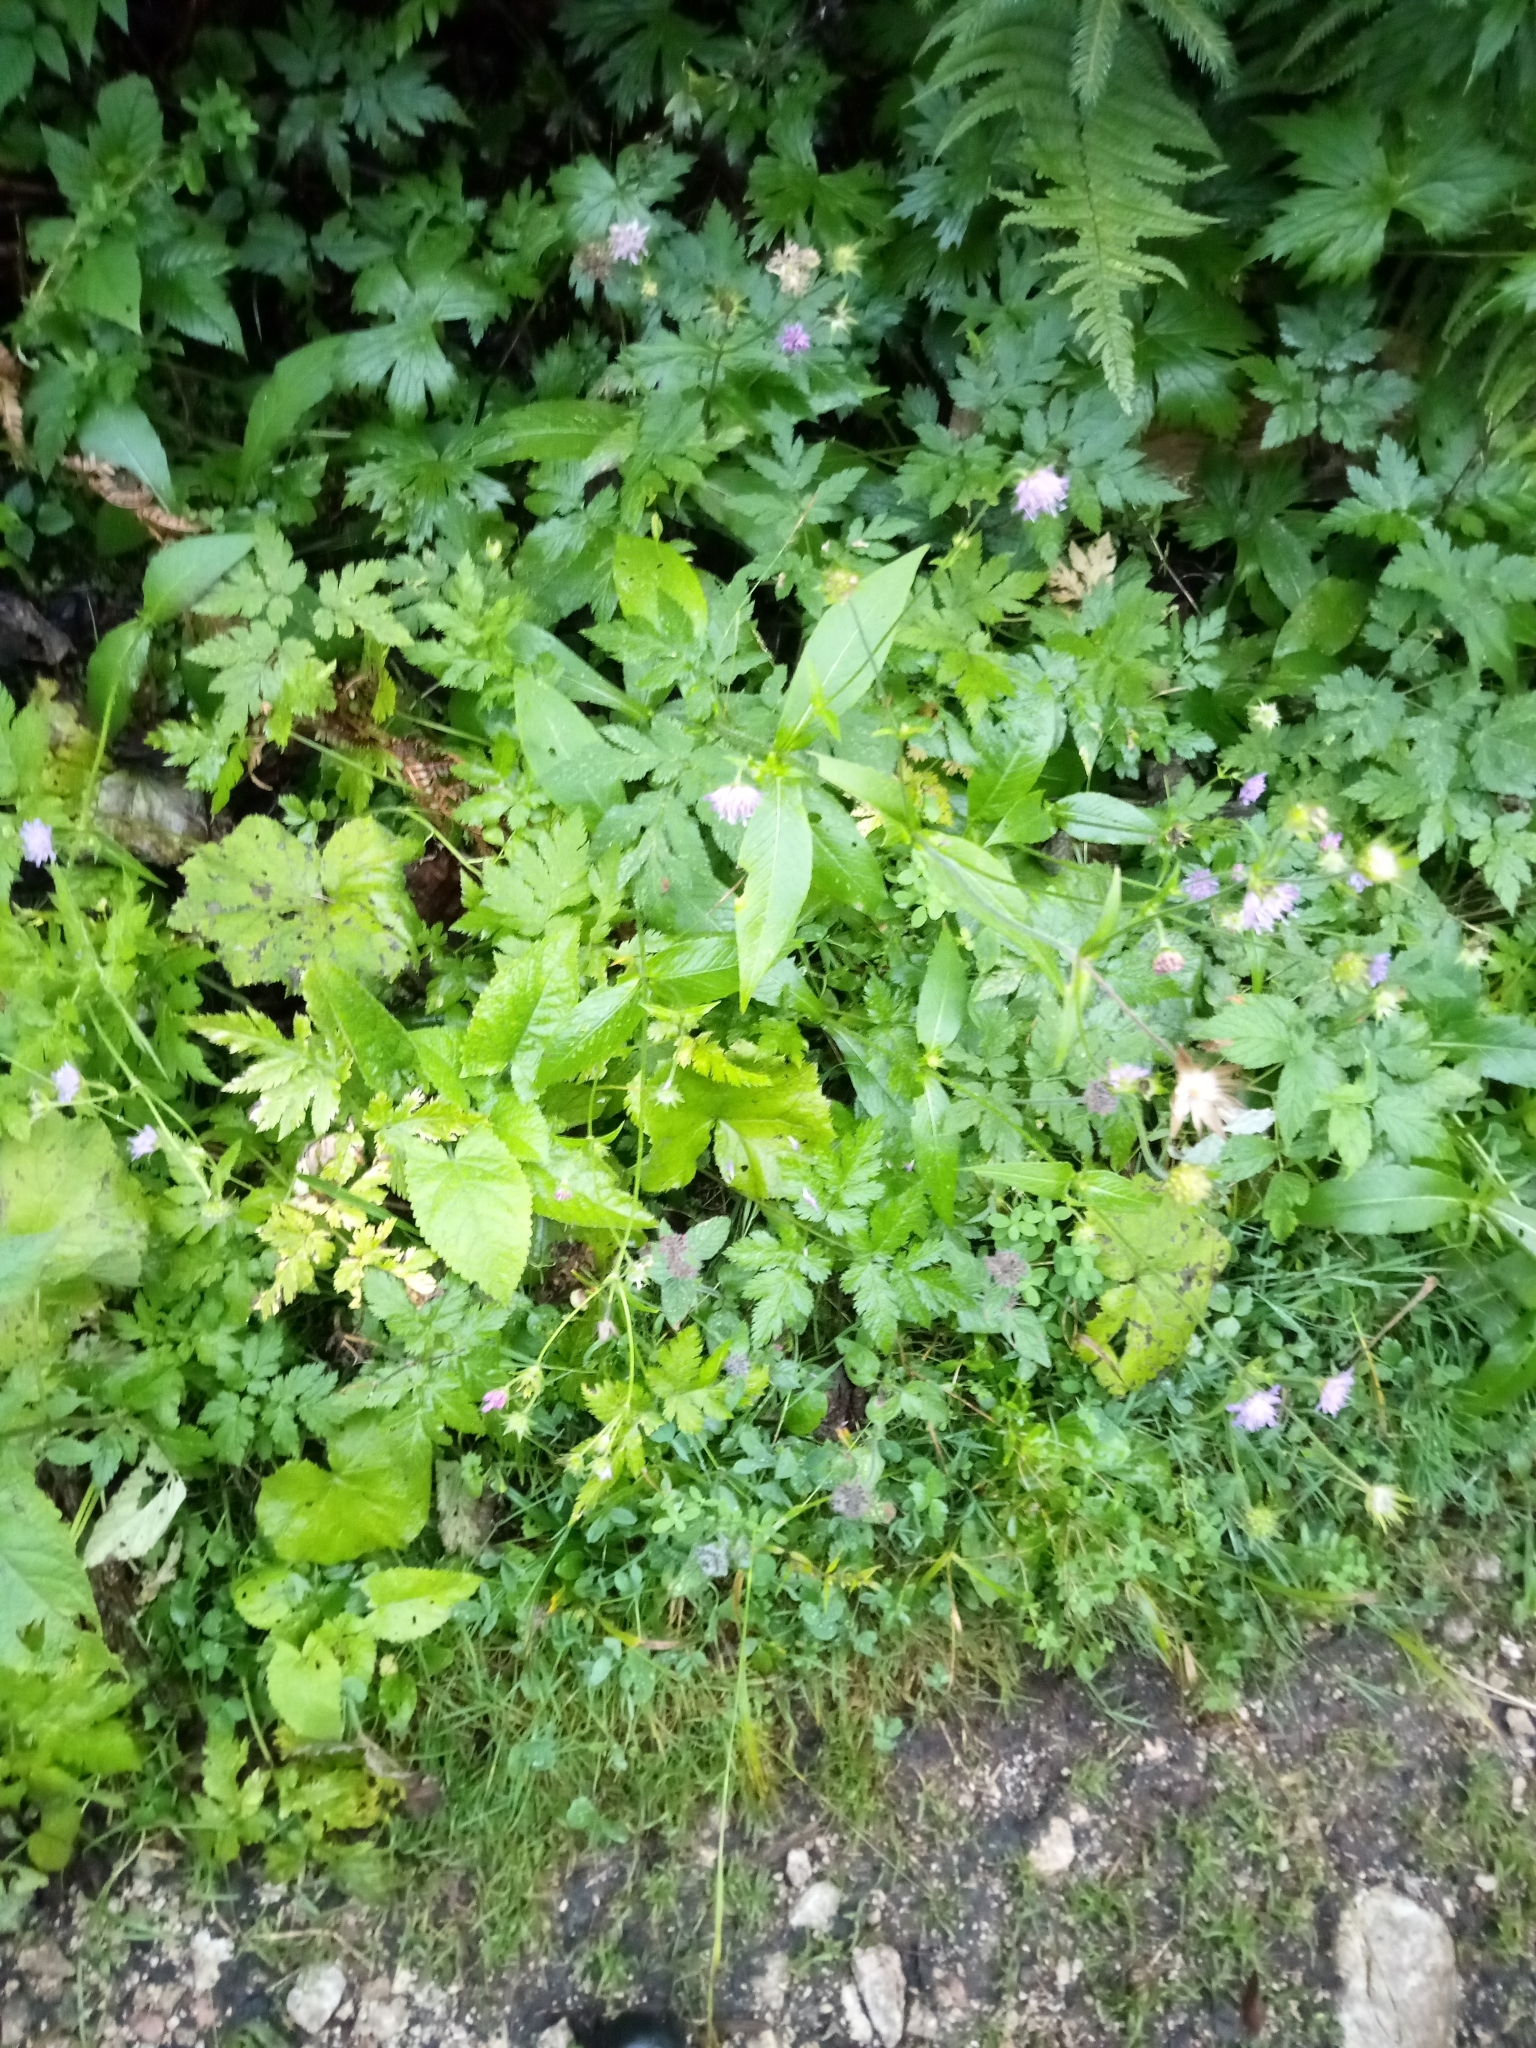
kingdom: Plantae
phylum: Tracheophyta
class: Magnoliopsida
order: Dipsacales
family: Caprifoliaceae
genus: Knautia
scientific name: Knautia dipsacifolia
